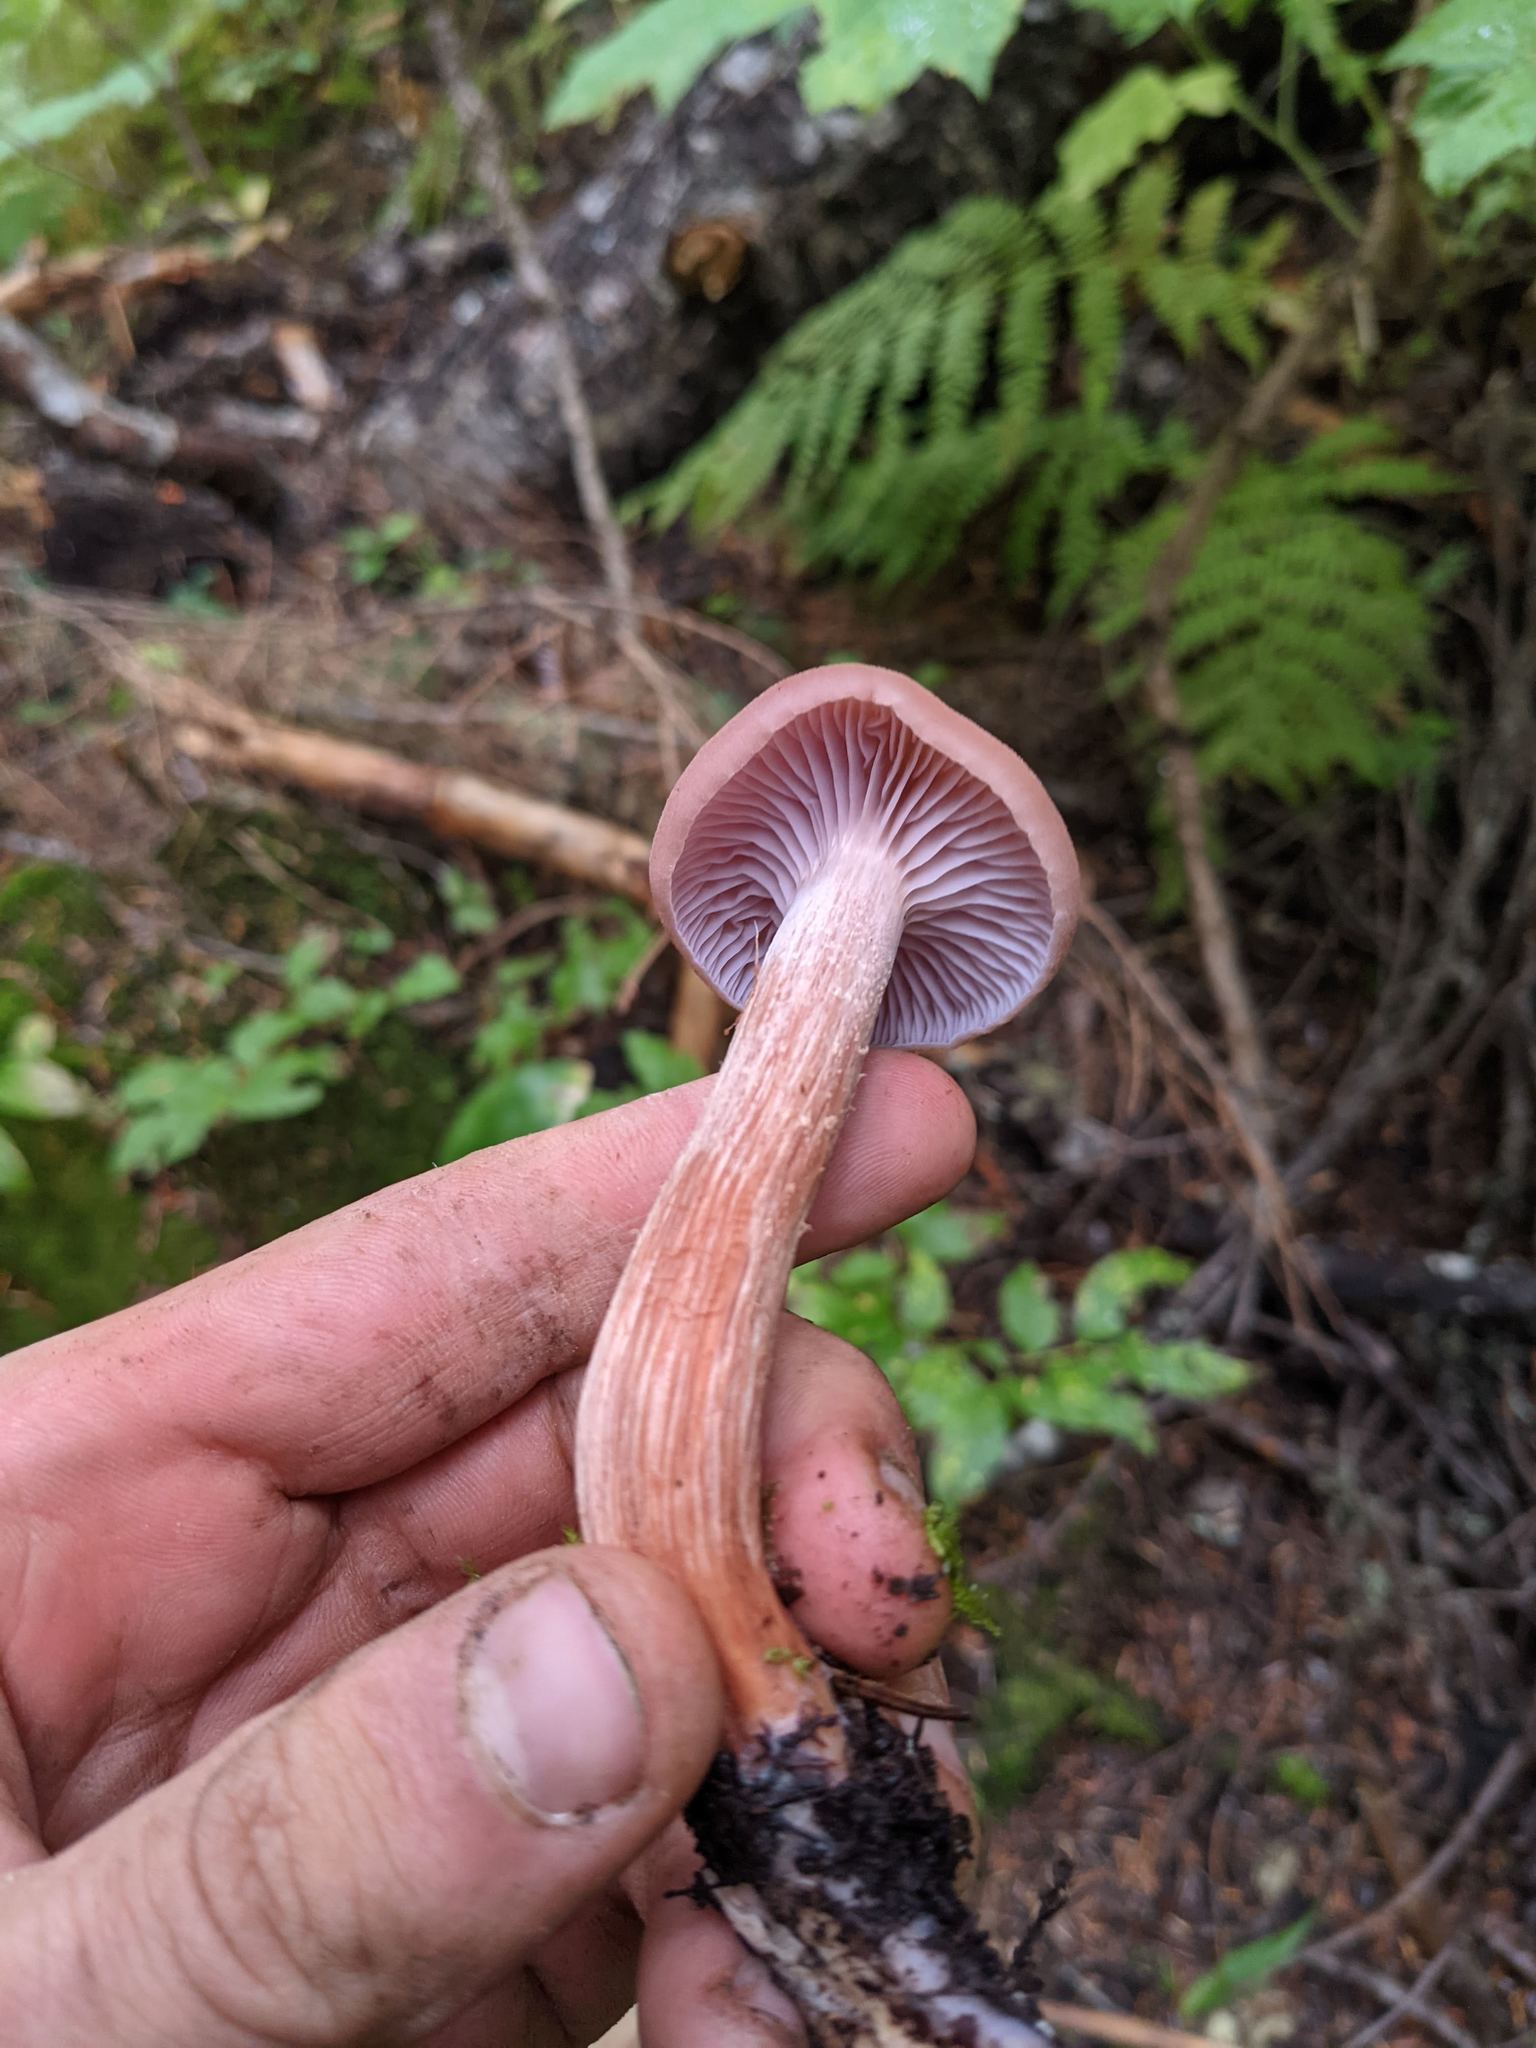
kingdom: Fungi
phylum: Basidiomycota
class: Agaricomycetes
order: Agaricales
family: Hydnangiaceae
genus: Laccaria
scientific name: Laccaria bicolor
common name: Bicoloured deceiver
